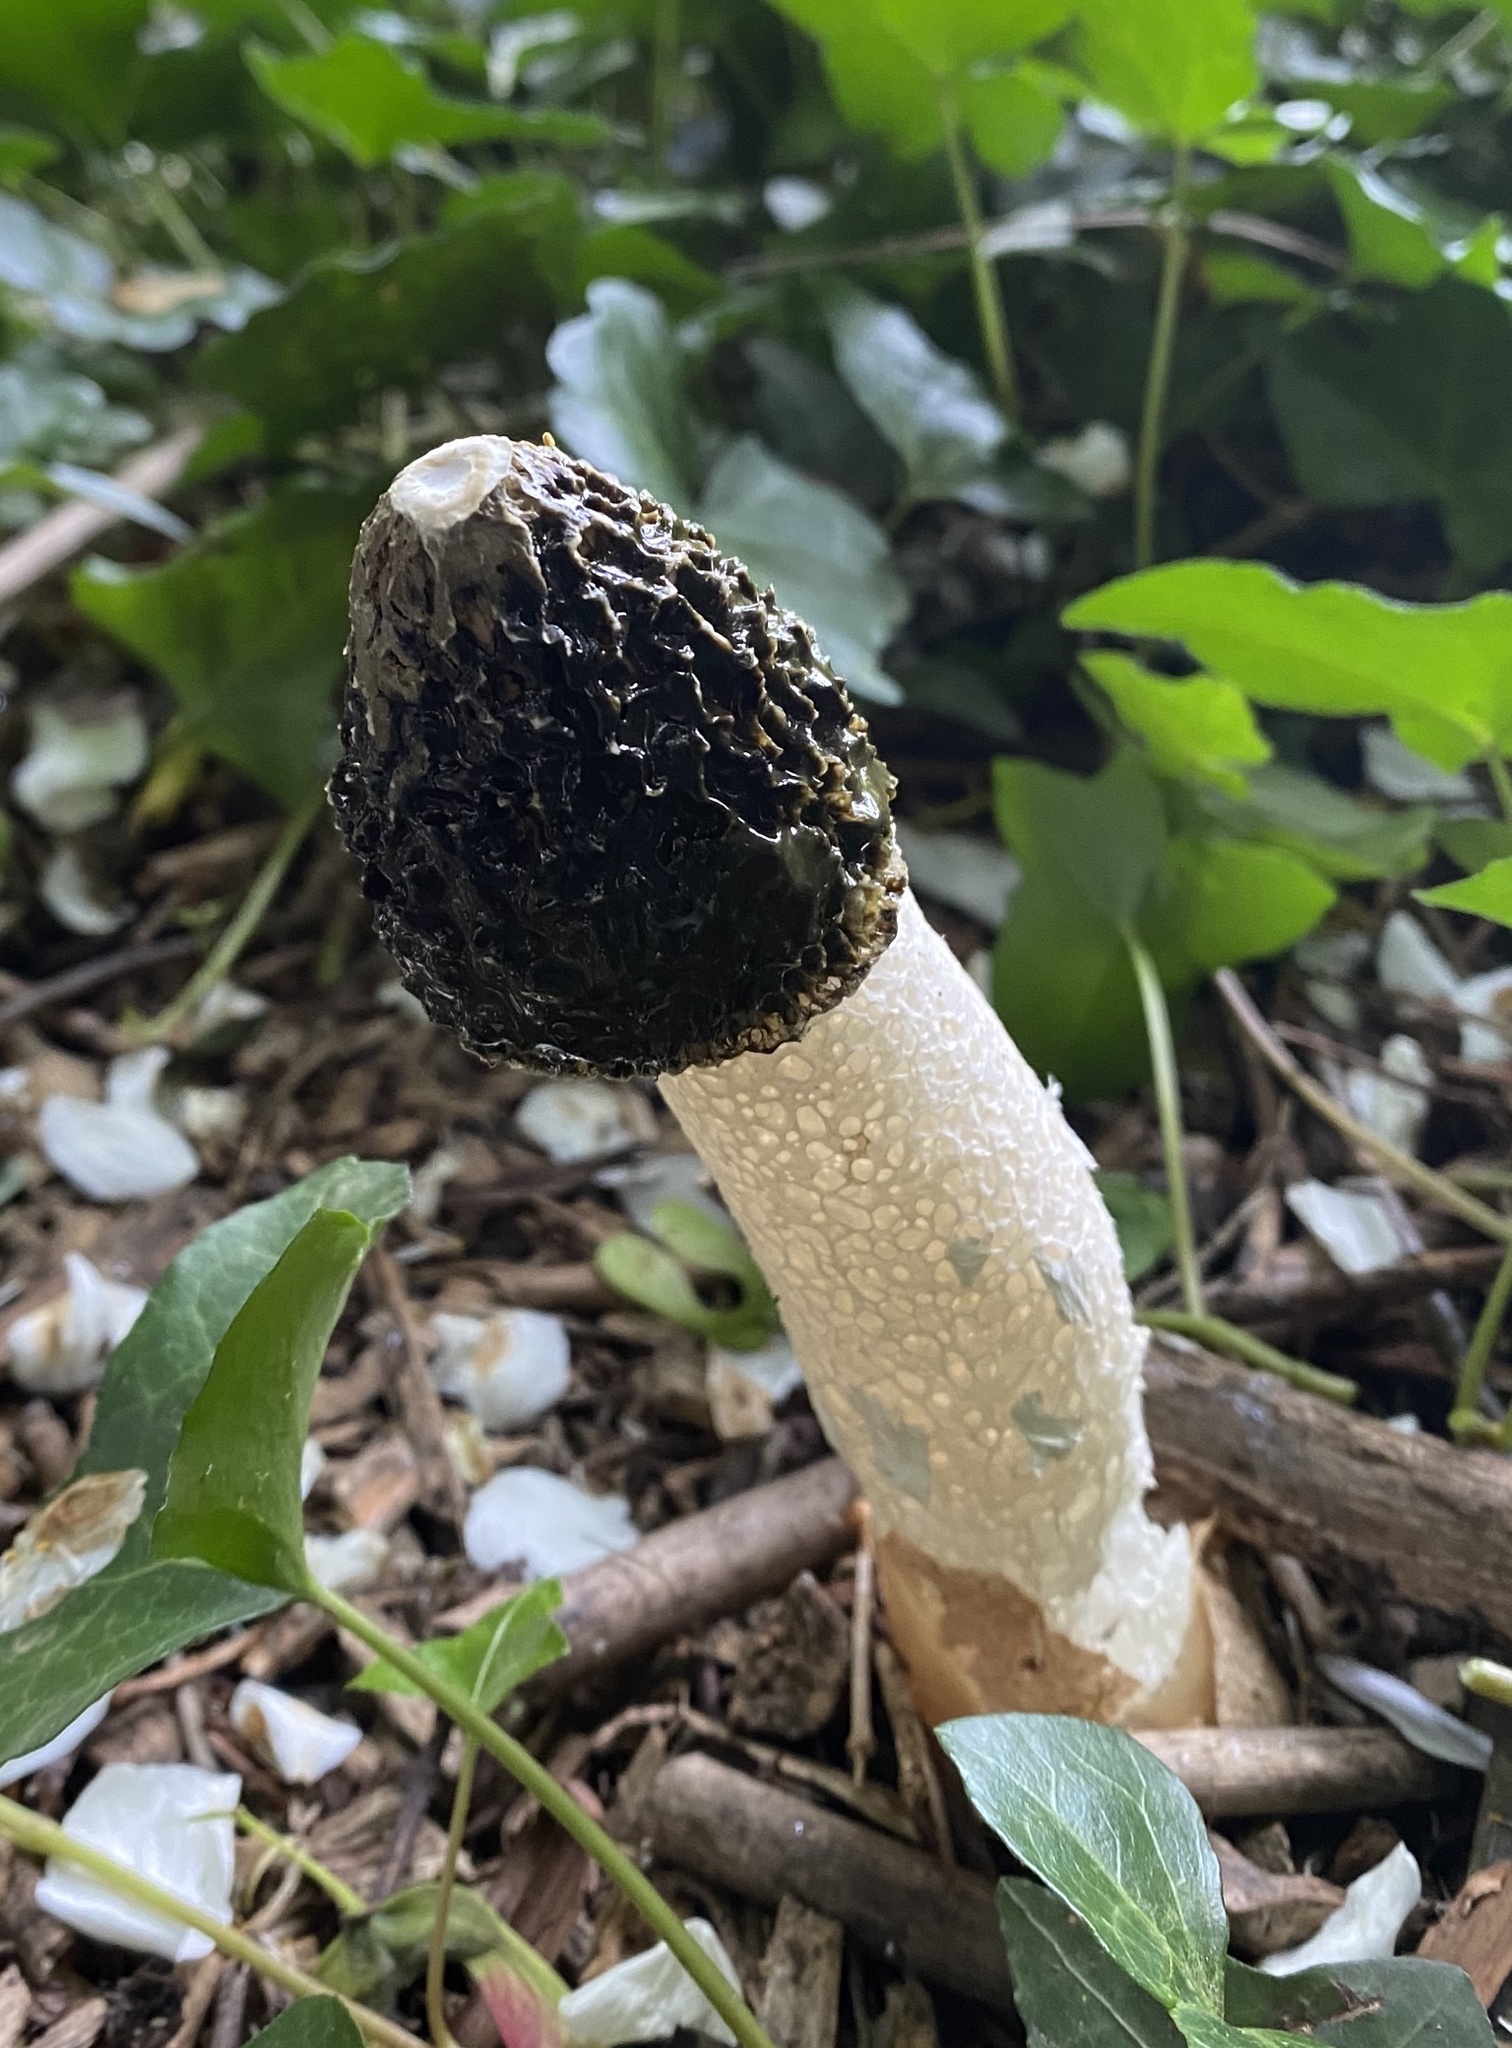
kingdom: Fungi
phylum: Basidiomycota
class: Agaricomycetes
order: Phallales
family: Phallaceae
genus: Phallus
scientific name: Phallus impudicus
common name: Common stinkhorn
